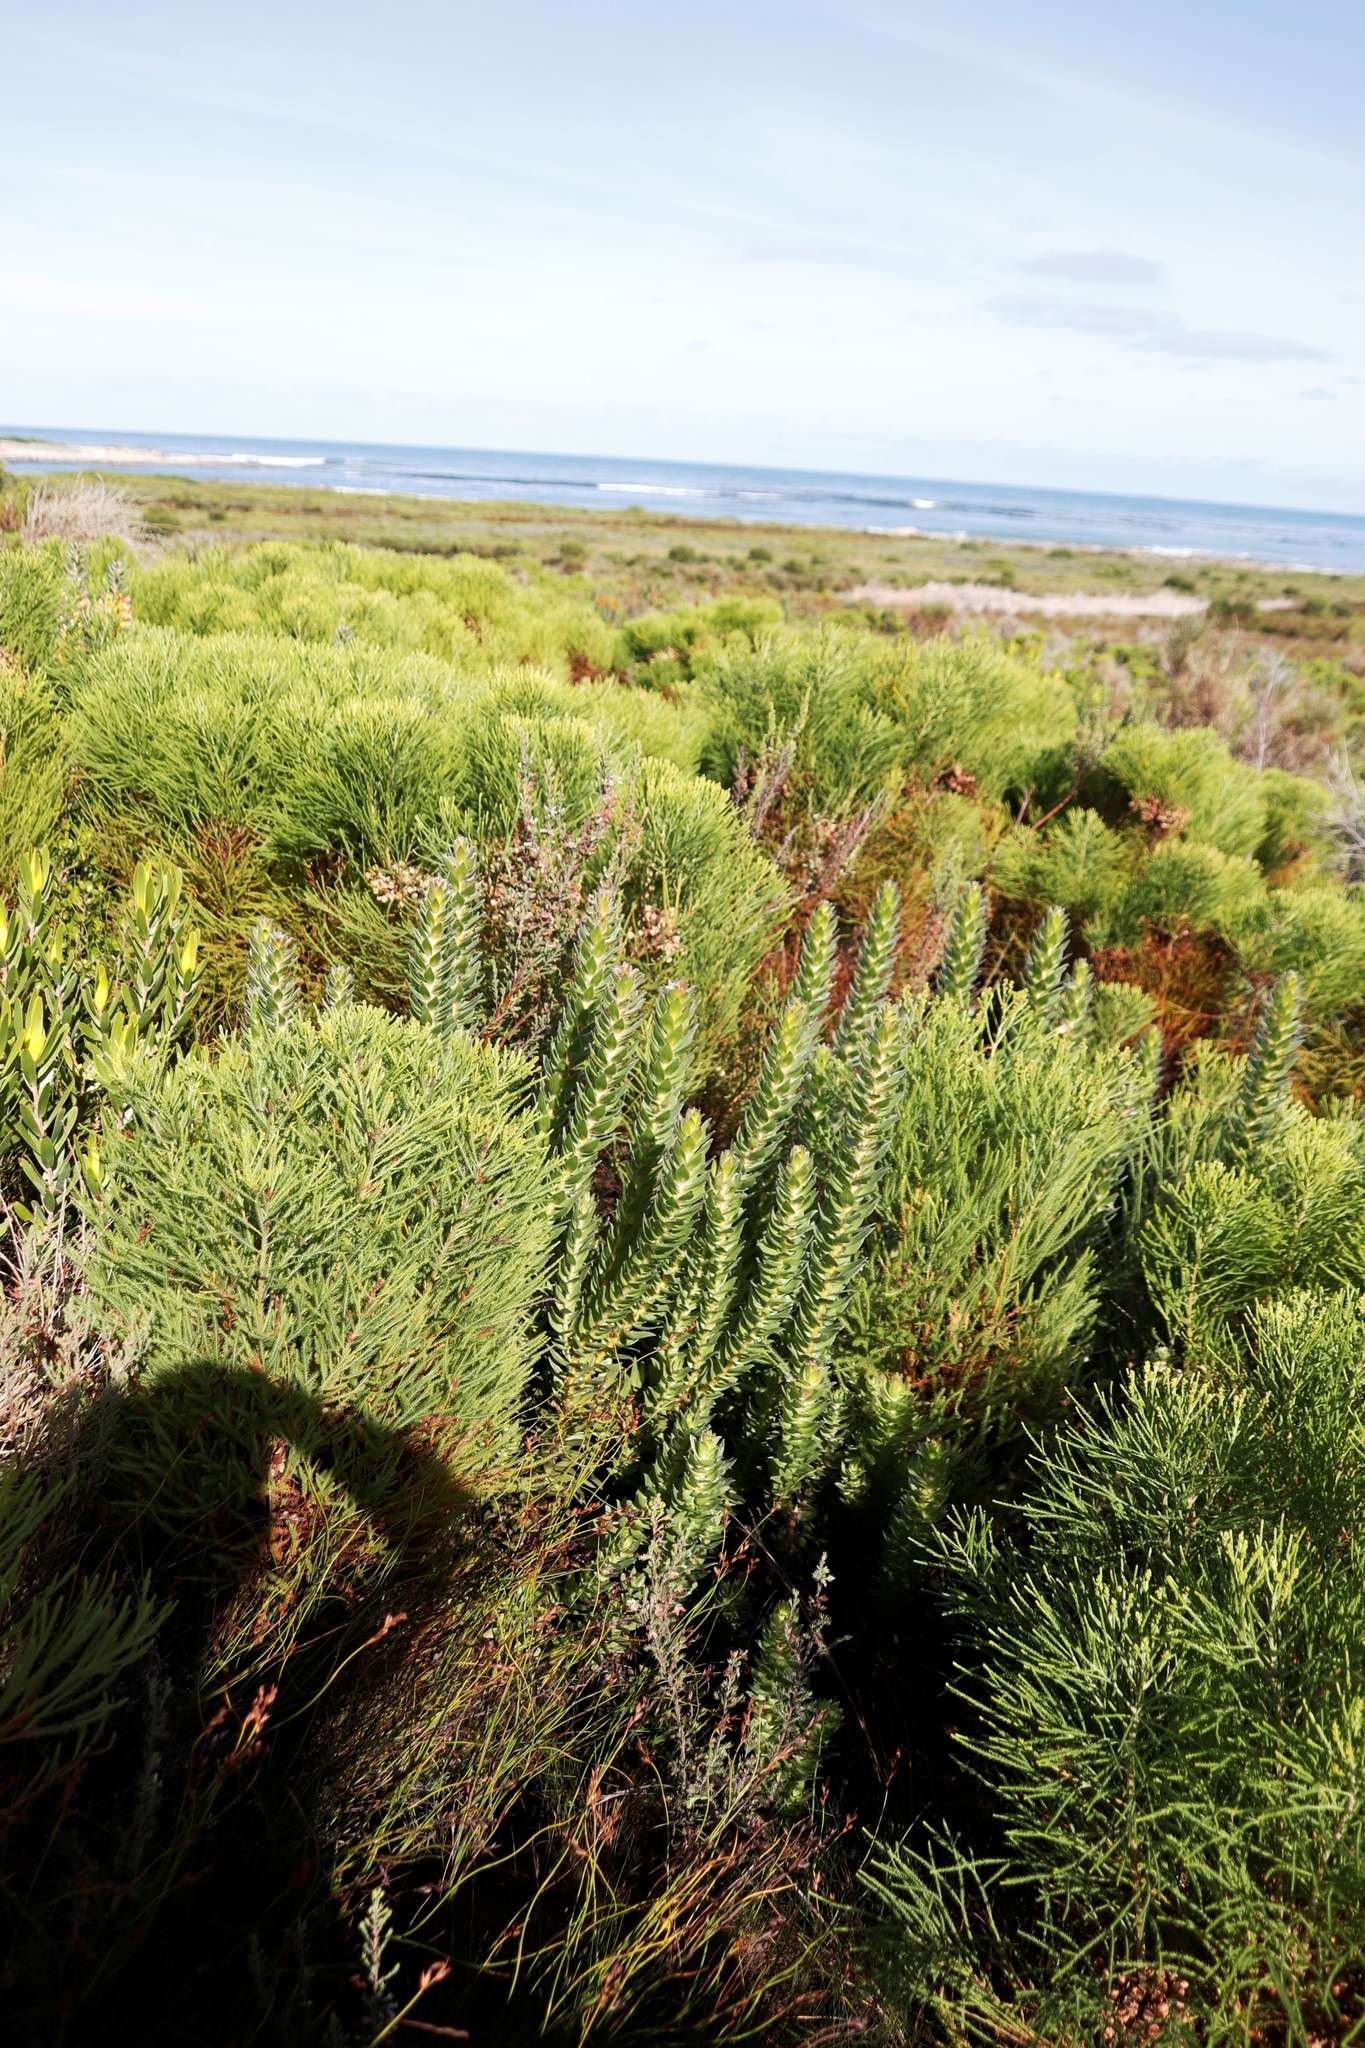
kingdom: Plantae
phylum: Tracheophyta
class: Magnoliopsida
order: Proteales
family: Proteaceae
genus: Mimetes
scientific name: Mimetes hirtus
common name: Marsh pagoda
